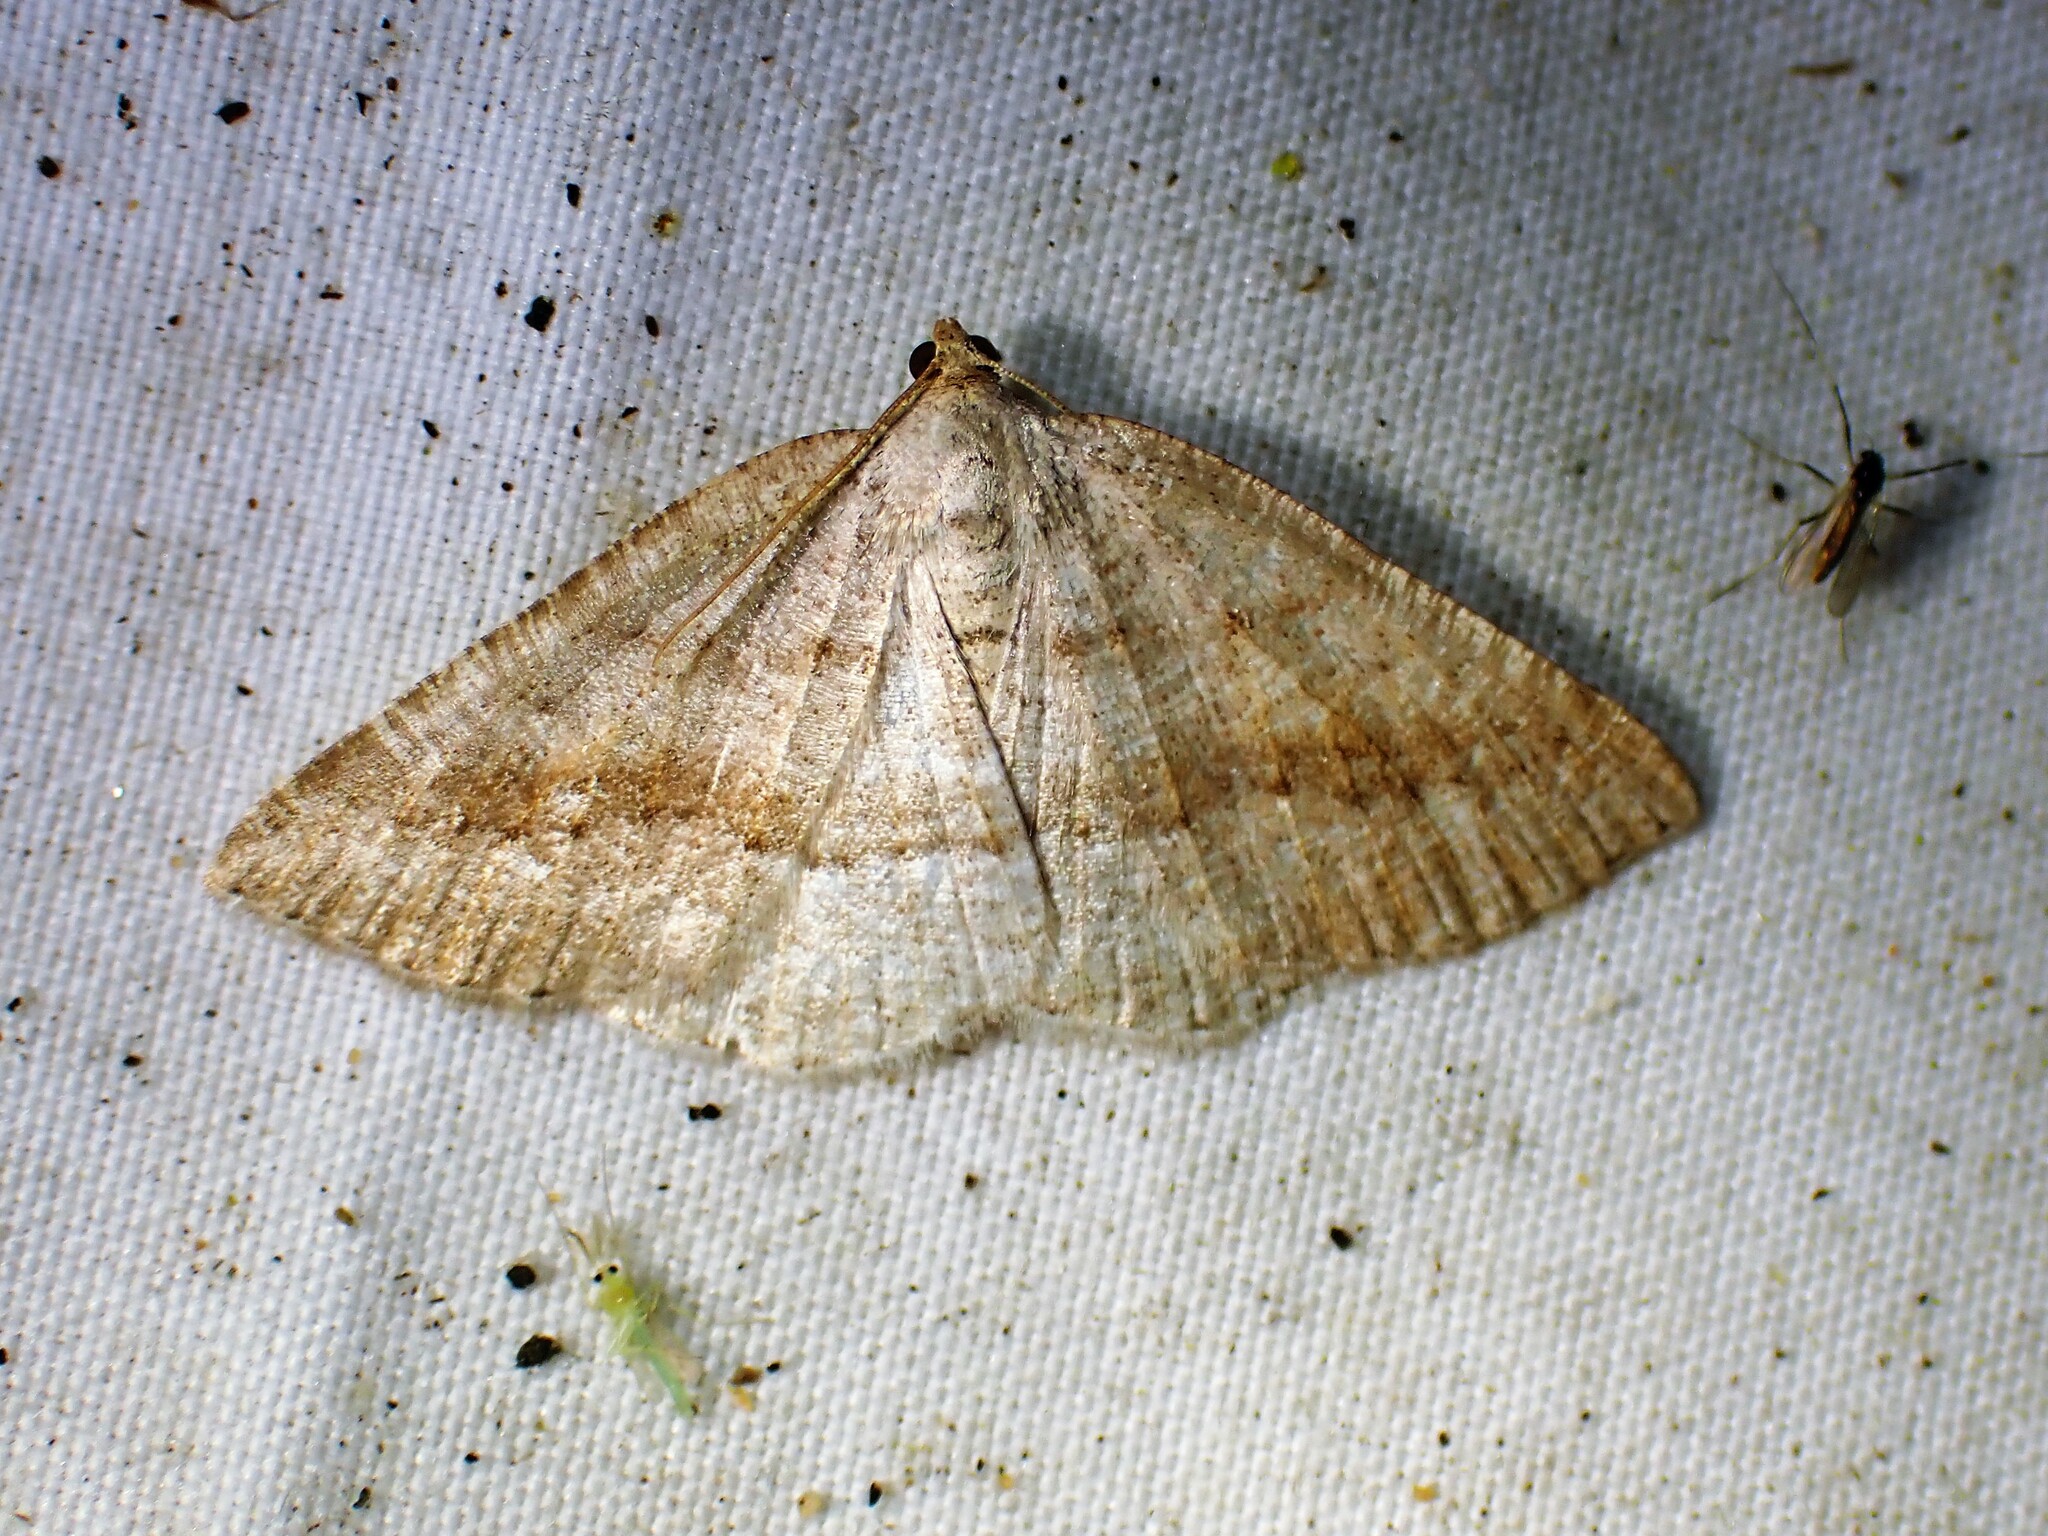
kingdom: Animalia
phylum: Arthropoda
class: Insecta
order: Lepidoptera
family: Geometridae
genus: Tacparia
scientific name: Tacparia detersata
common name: Pale alder moth
